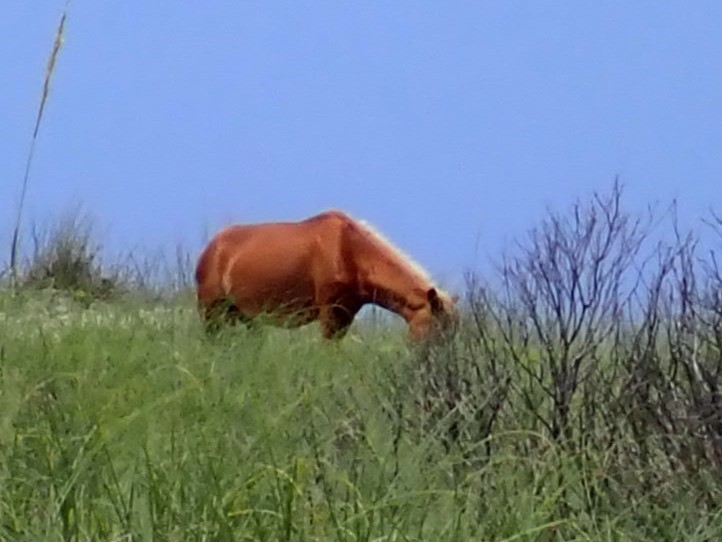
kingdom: Animalia
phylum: Chordata
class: Mammalia
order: Perissodactyla
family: Equidae
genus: Equus
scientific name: Equus caballus
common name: Horse
